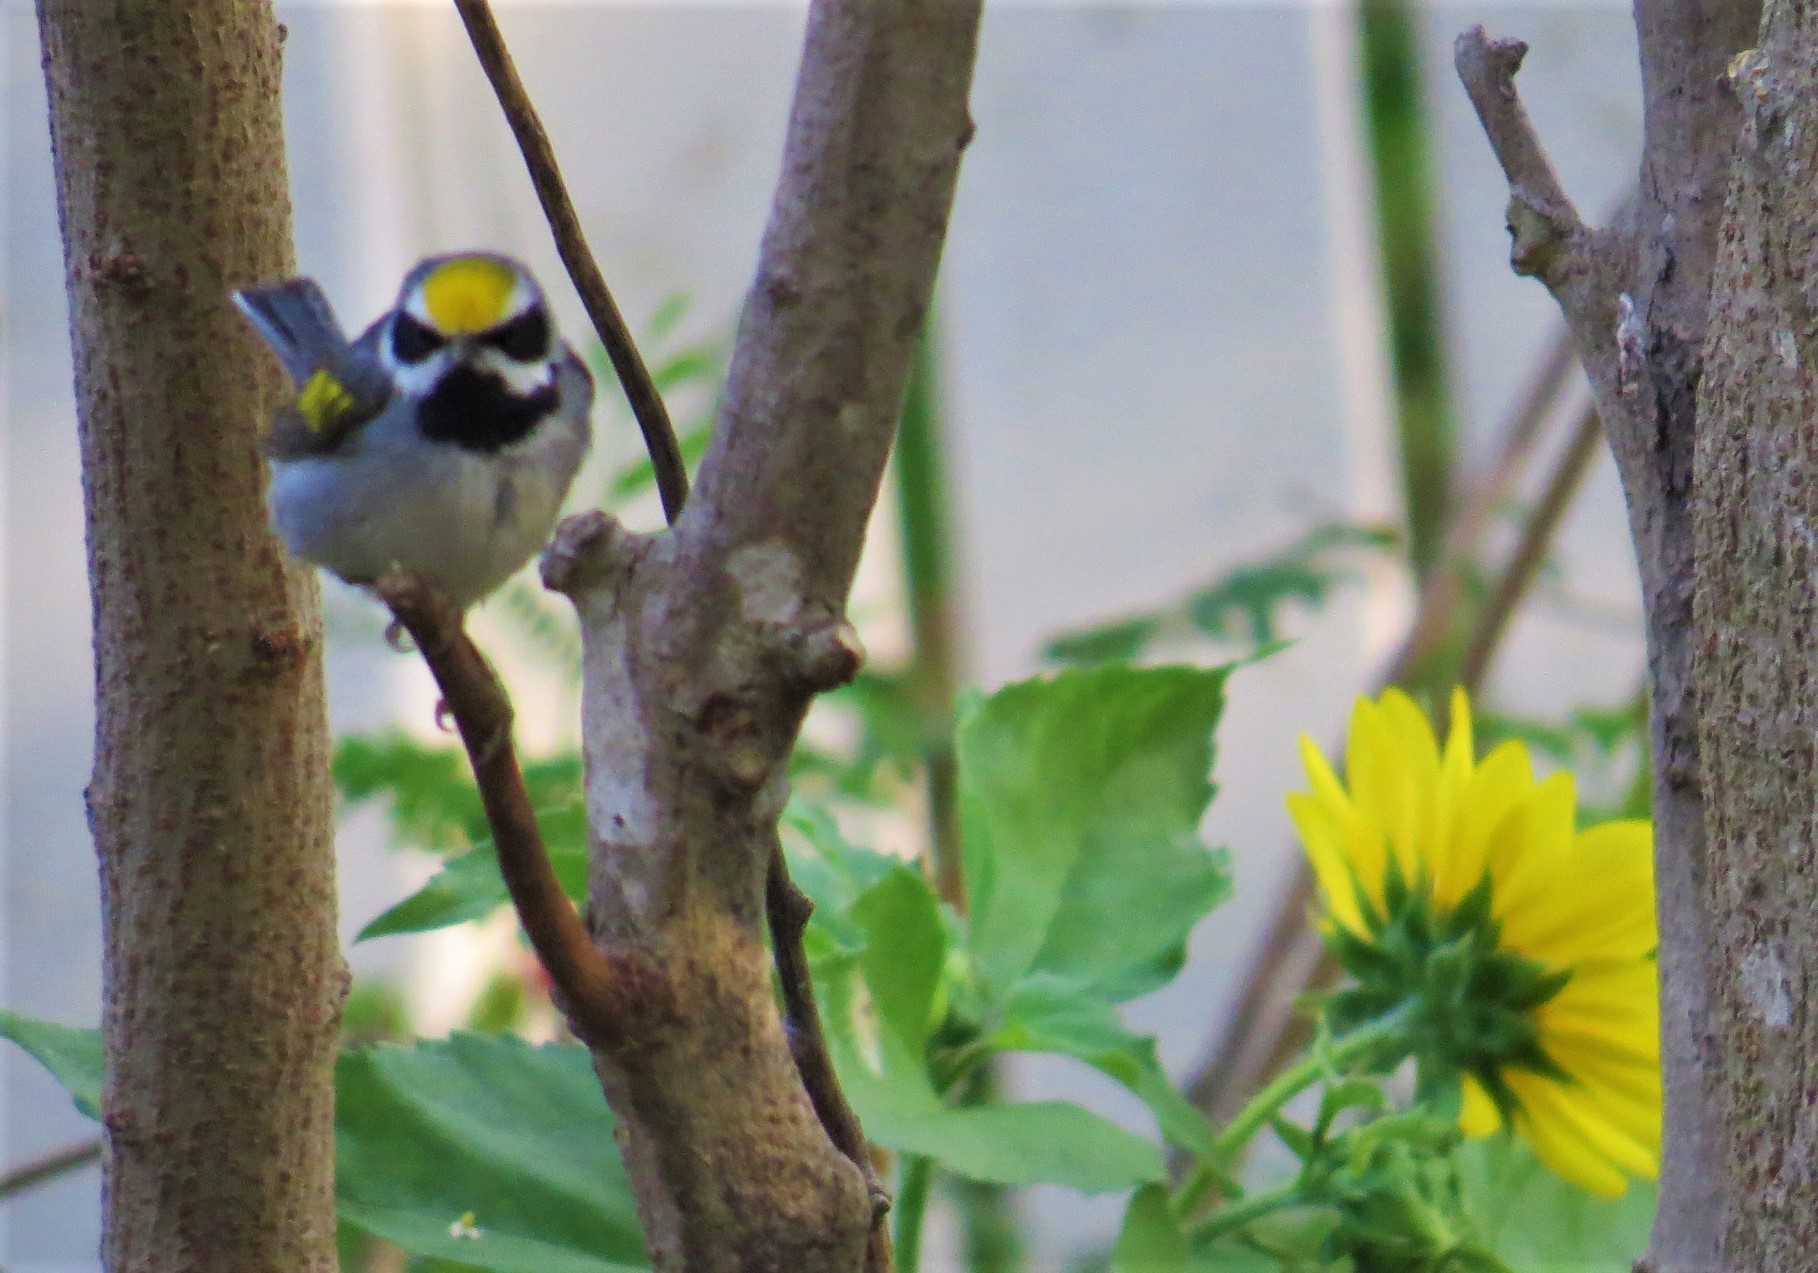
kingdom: Animalia
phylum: Chordata
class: Aves
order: Passeriformes
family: Parulidae
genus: Vermivora
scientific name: Vermivora chrysoptera
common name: Golden-winged warbler
